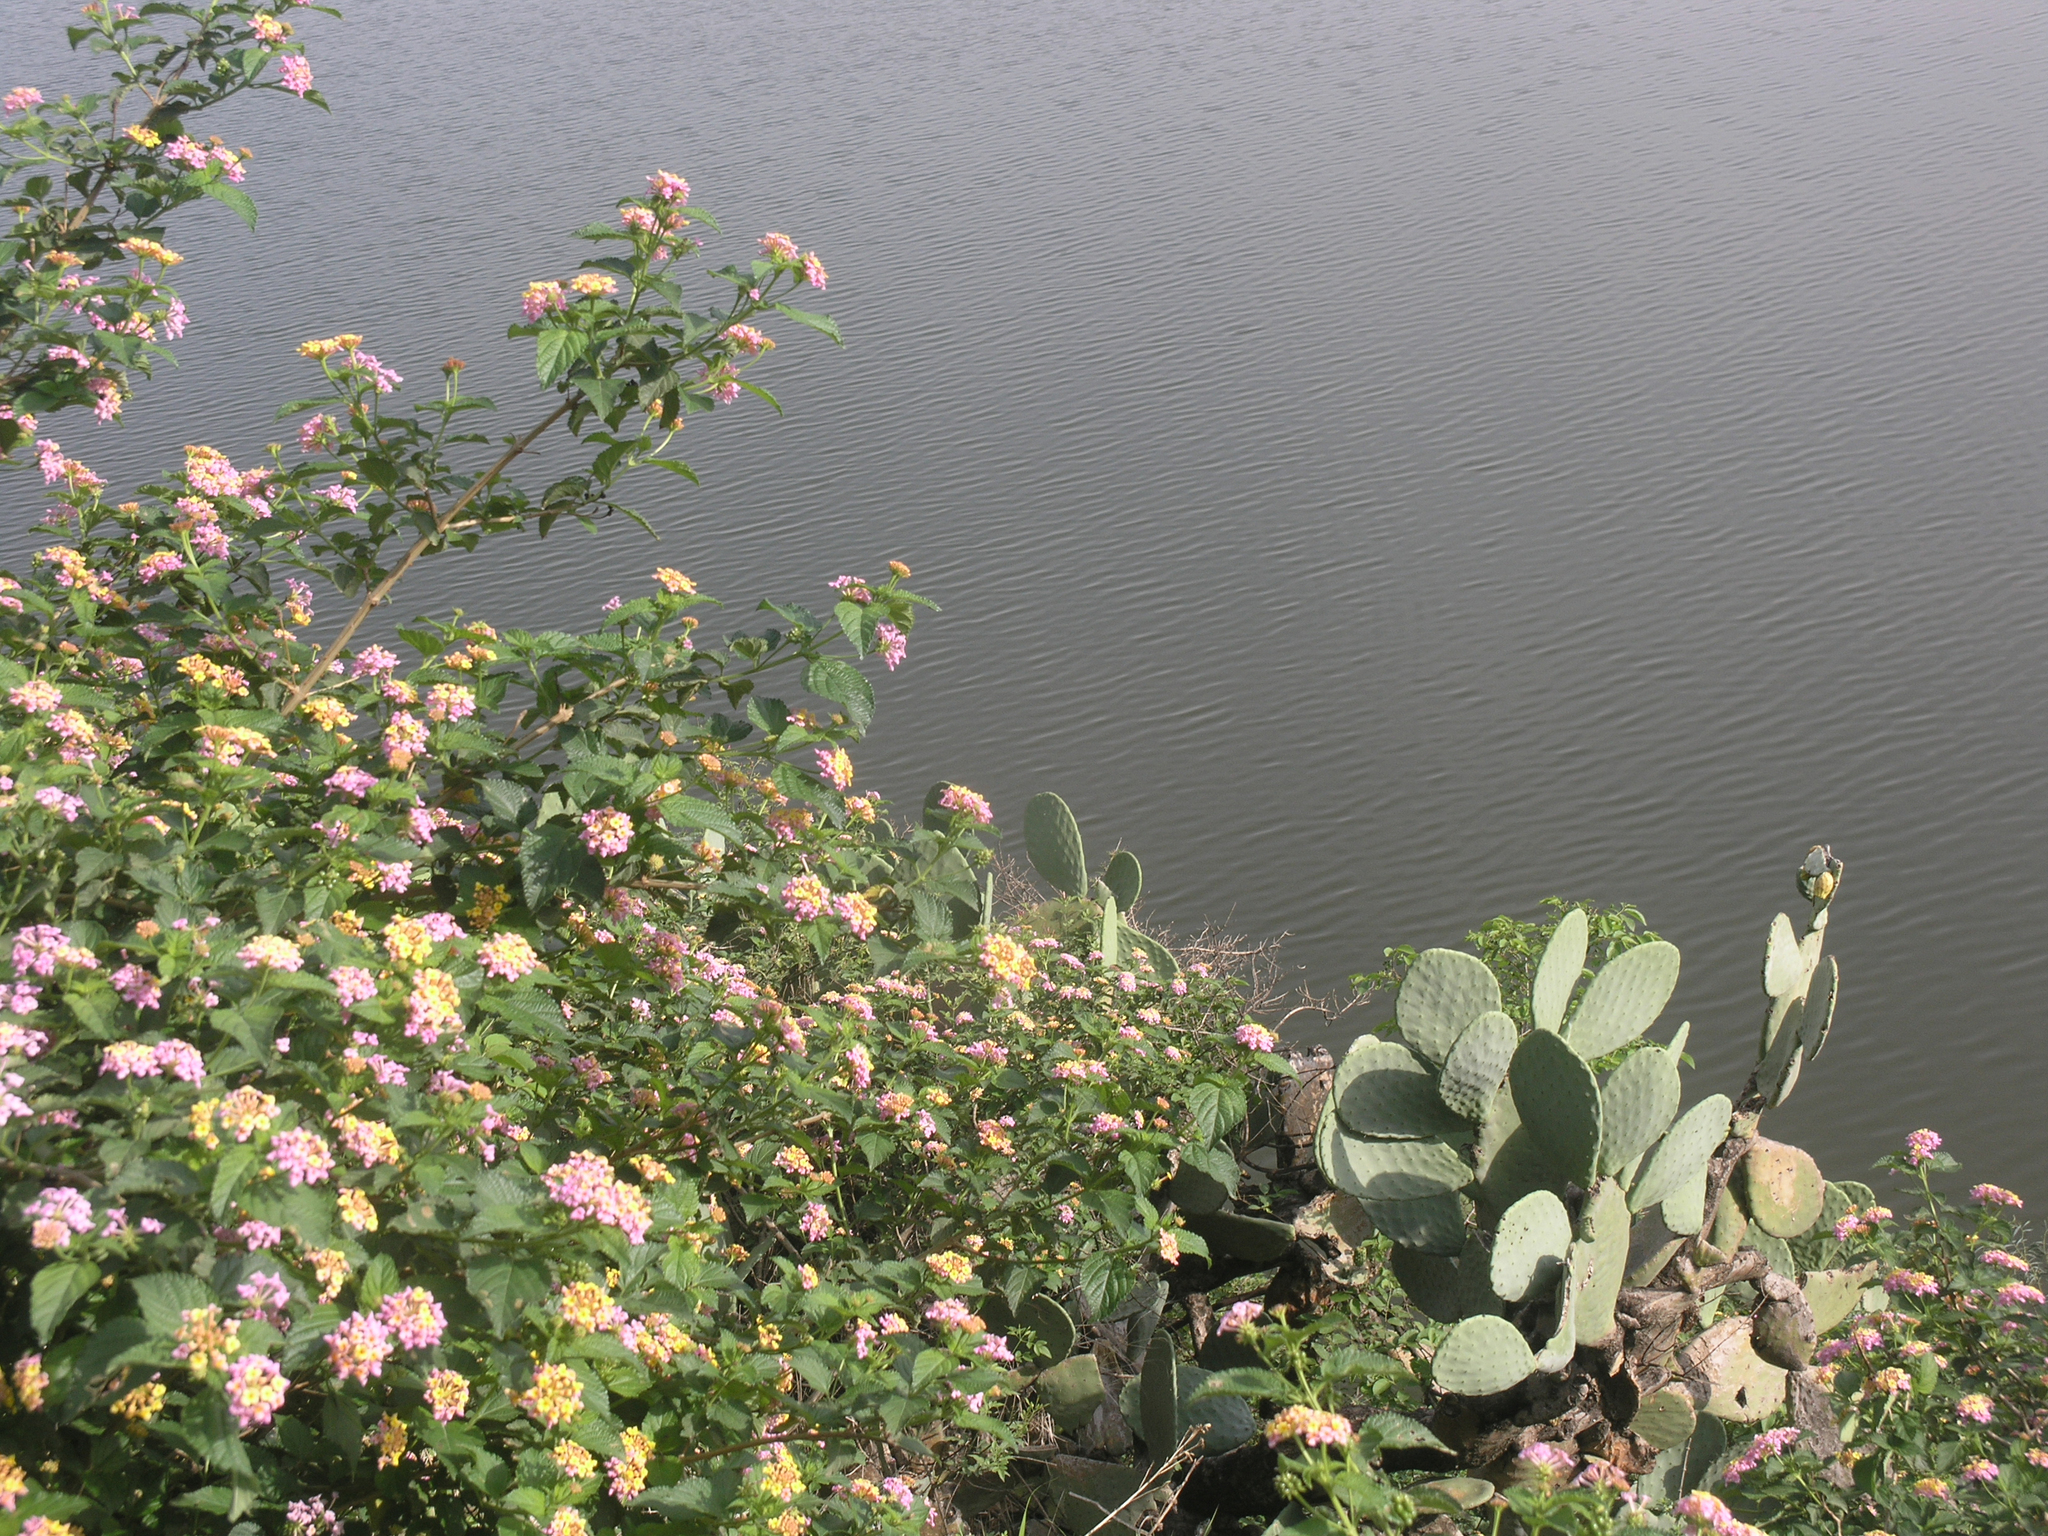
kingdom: Plantae
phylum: Tracheophyta
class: Magnoliopsida
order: Lamiales
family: Verbenaceae
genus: Lantana
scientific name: Lantana camara
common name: Lantana
